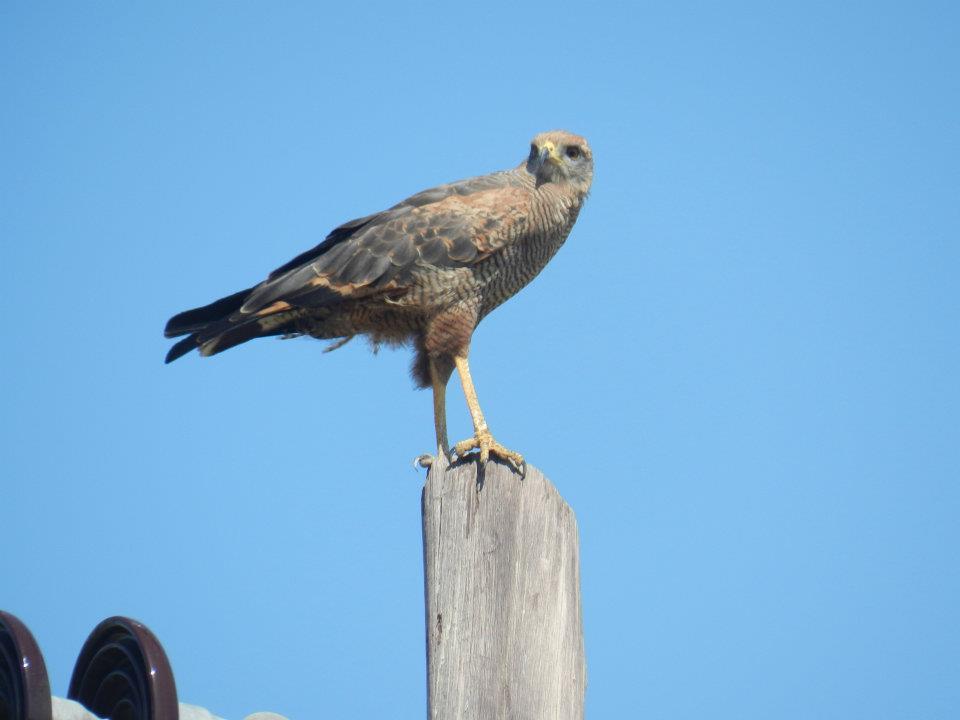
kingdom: Animalia
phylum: Chordata
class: Aves
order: Accipitriformes
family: Accipitridae
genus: Buteogallus
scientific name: Buteogallus meridionalis
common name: Savanna hawk
